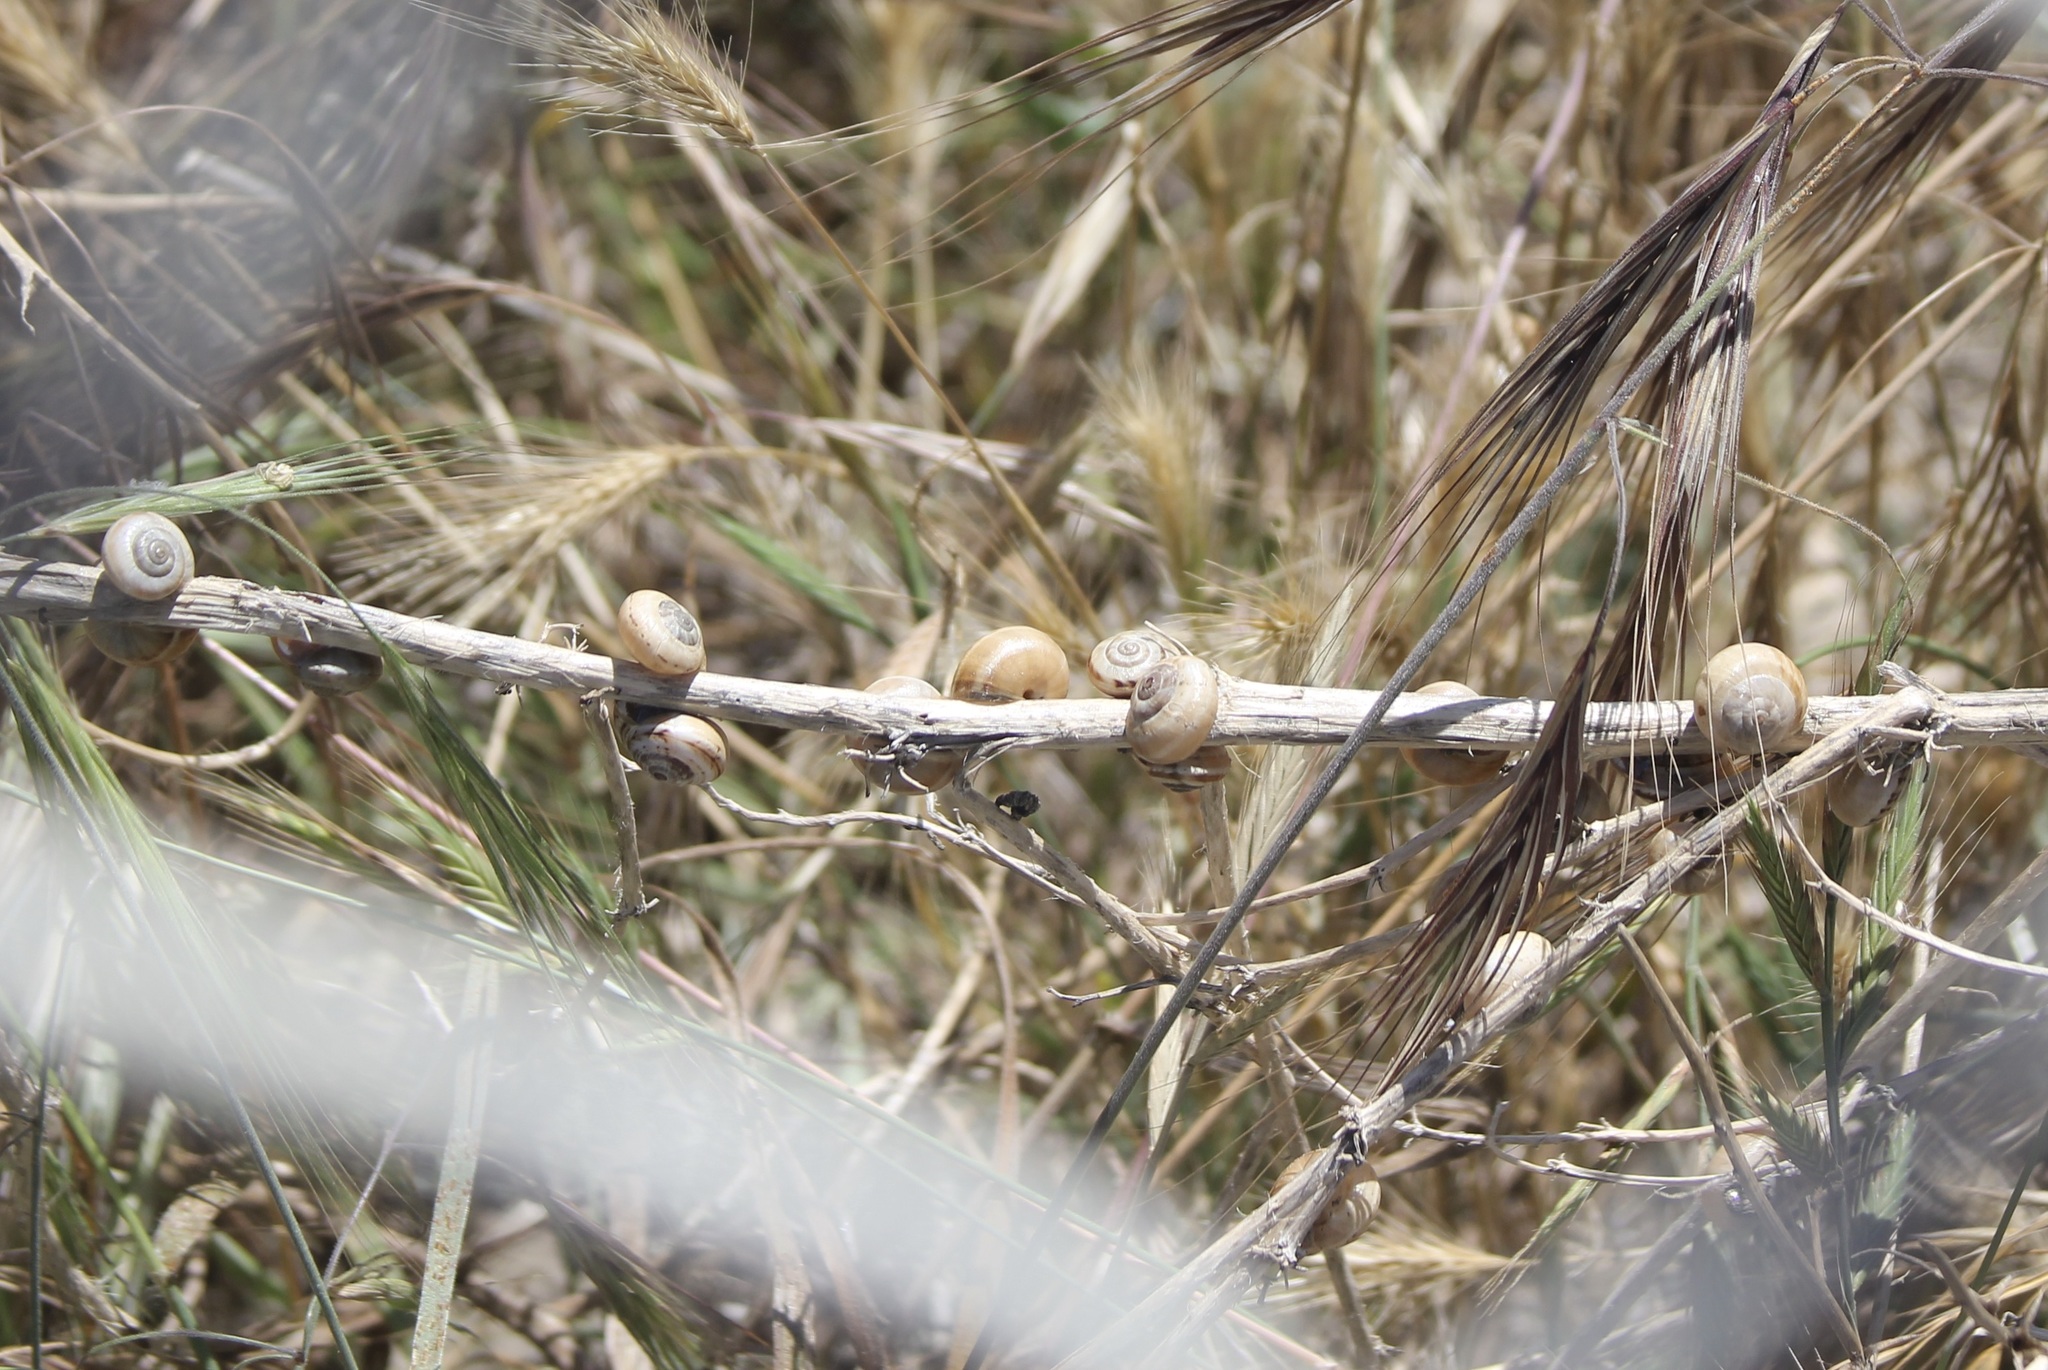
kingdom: Animalia
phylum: Mollusca
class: Gastropoda
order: Stylommatophora
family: Helicidae
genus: Theba
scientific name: Theba pisana
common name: White snail
